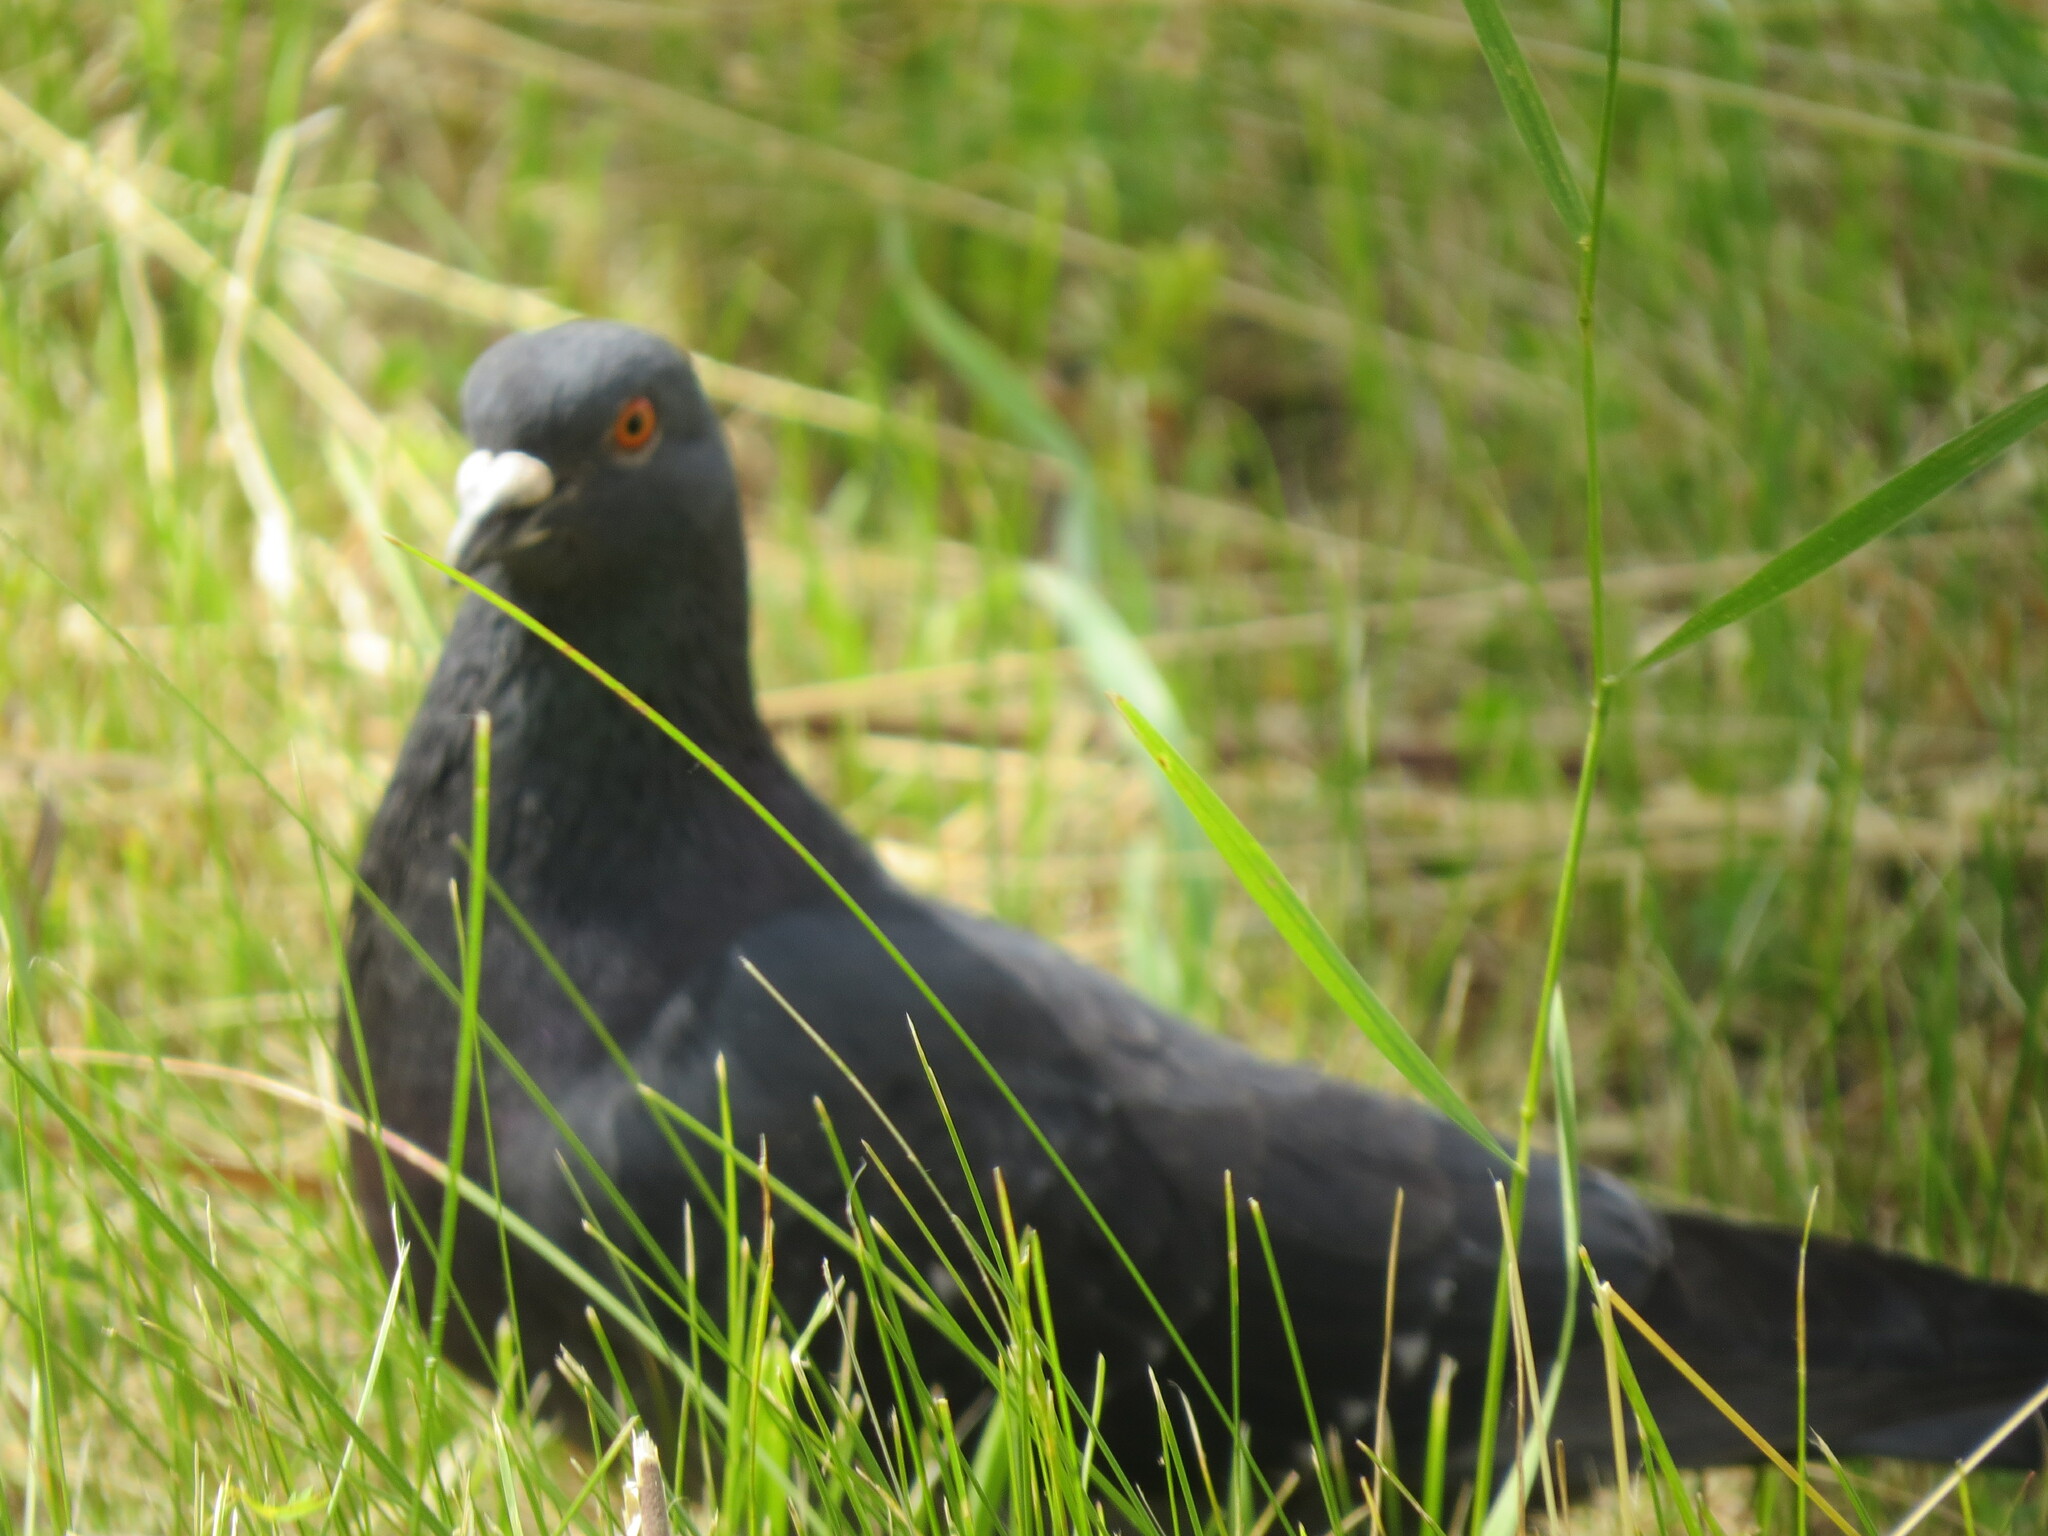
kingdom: Animalia
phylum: Chordata
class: Aves
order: Columbiformes
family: Columbidae
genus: Columba
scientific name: Columba livia
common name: Rock pigeon
